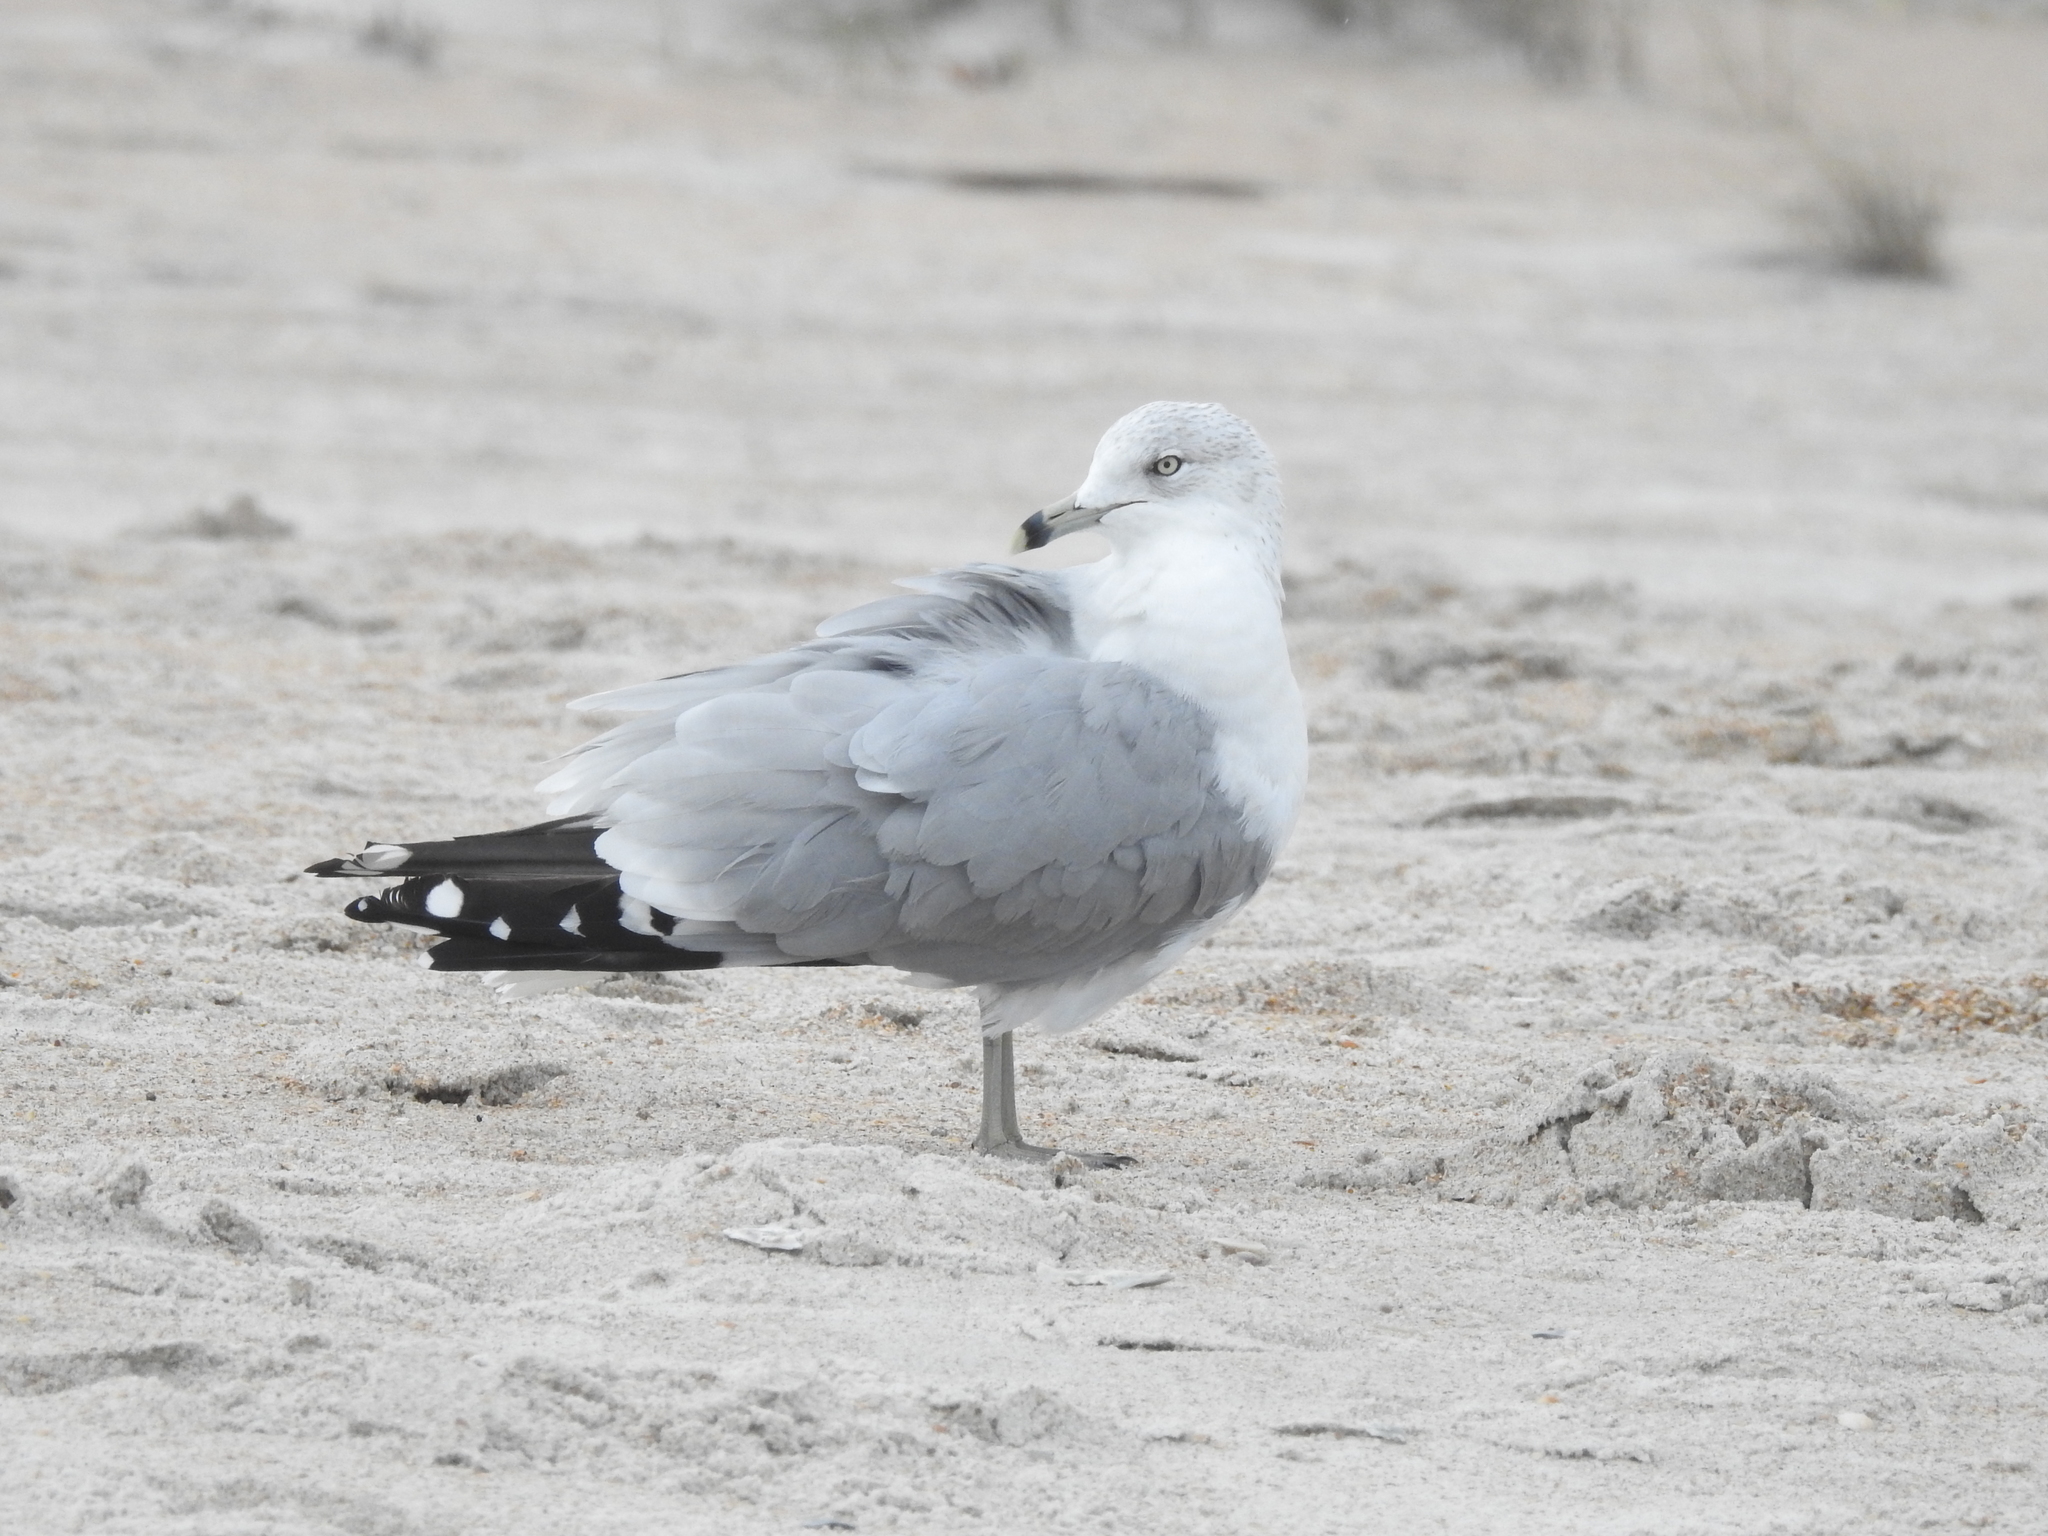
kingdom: Animalia
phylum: Chordata
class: Aves
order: Charadriiformes
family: Laridae
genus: Larus
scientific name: Larus delawarensis
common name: Ring-billed gull
